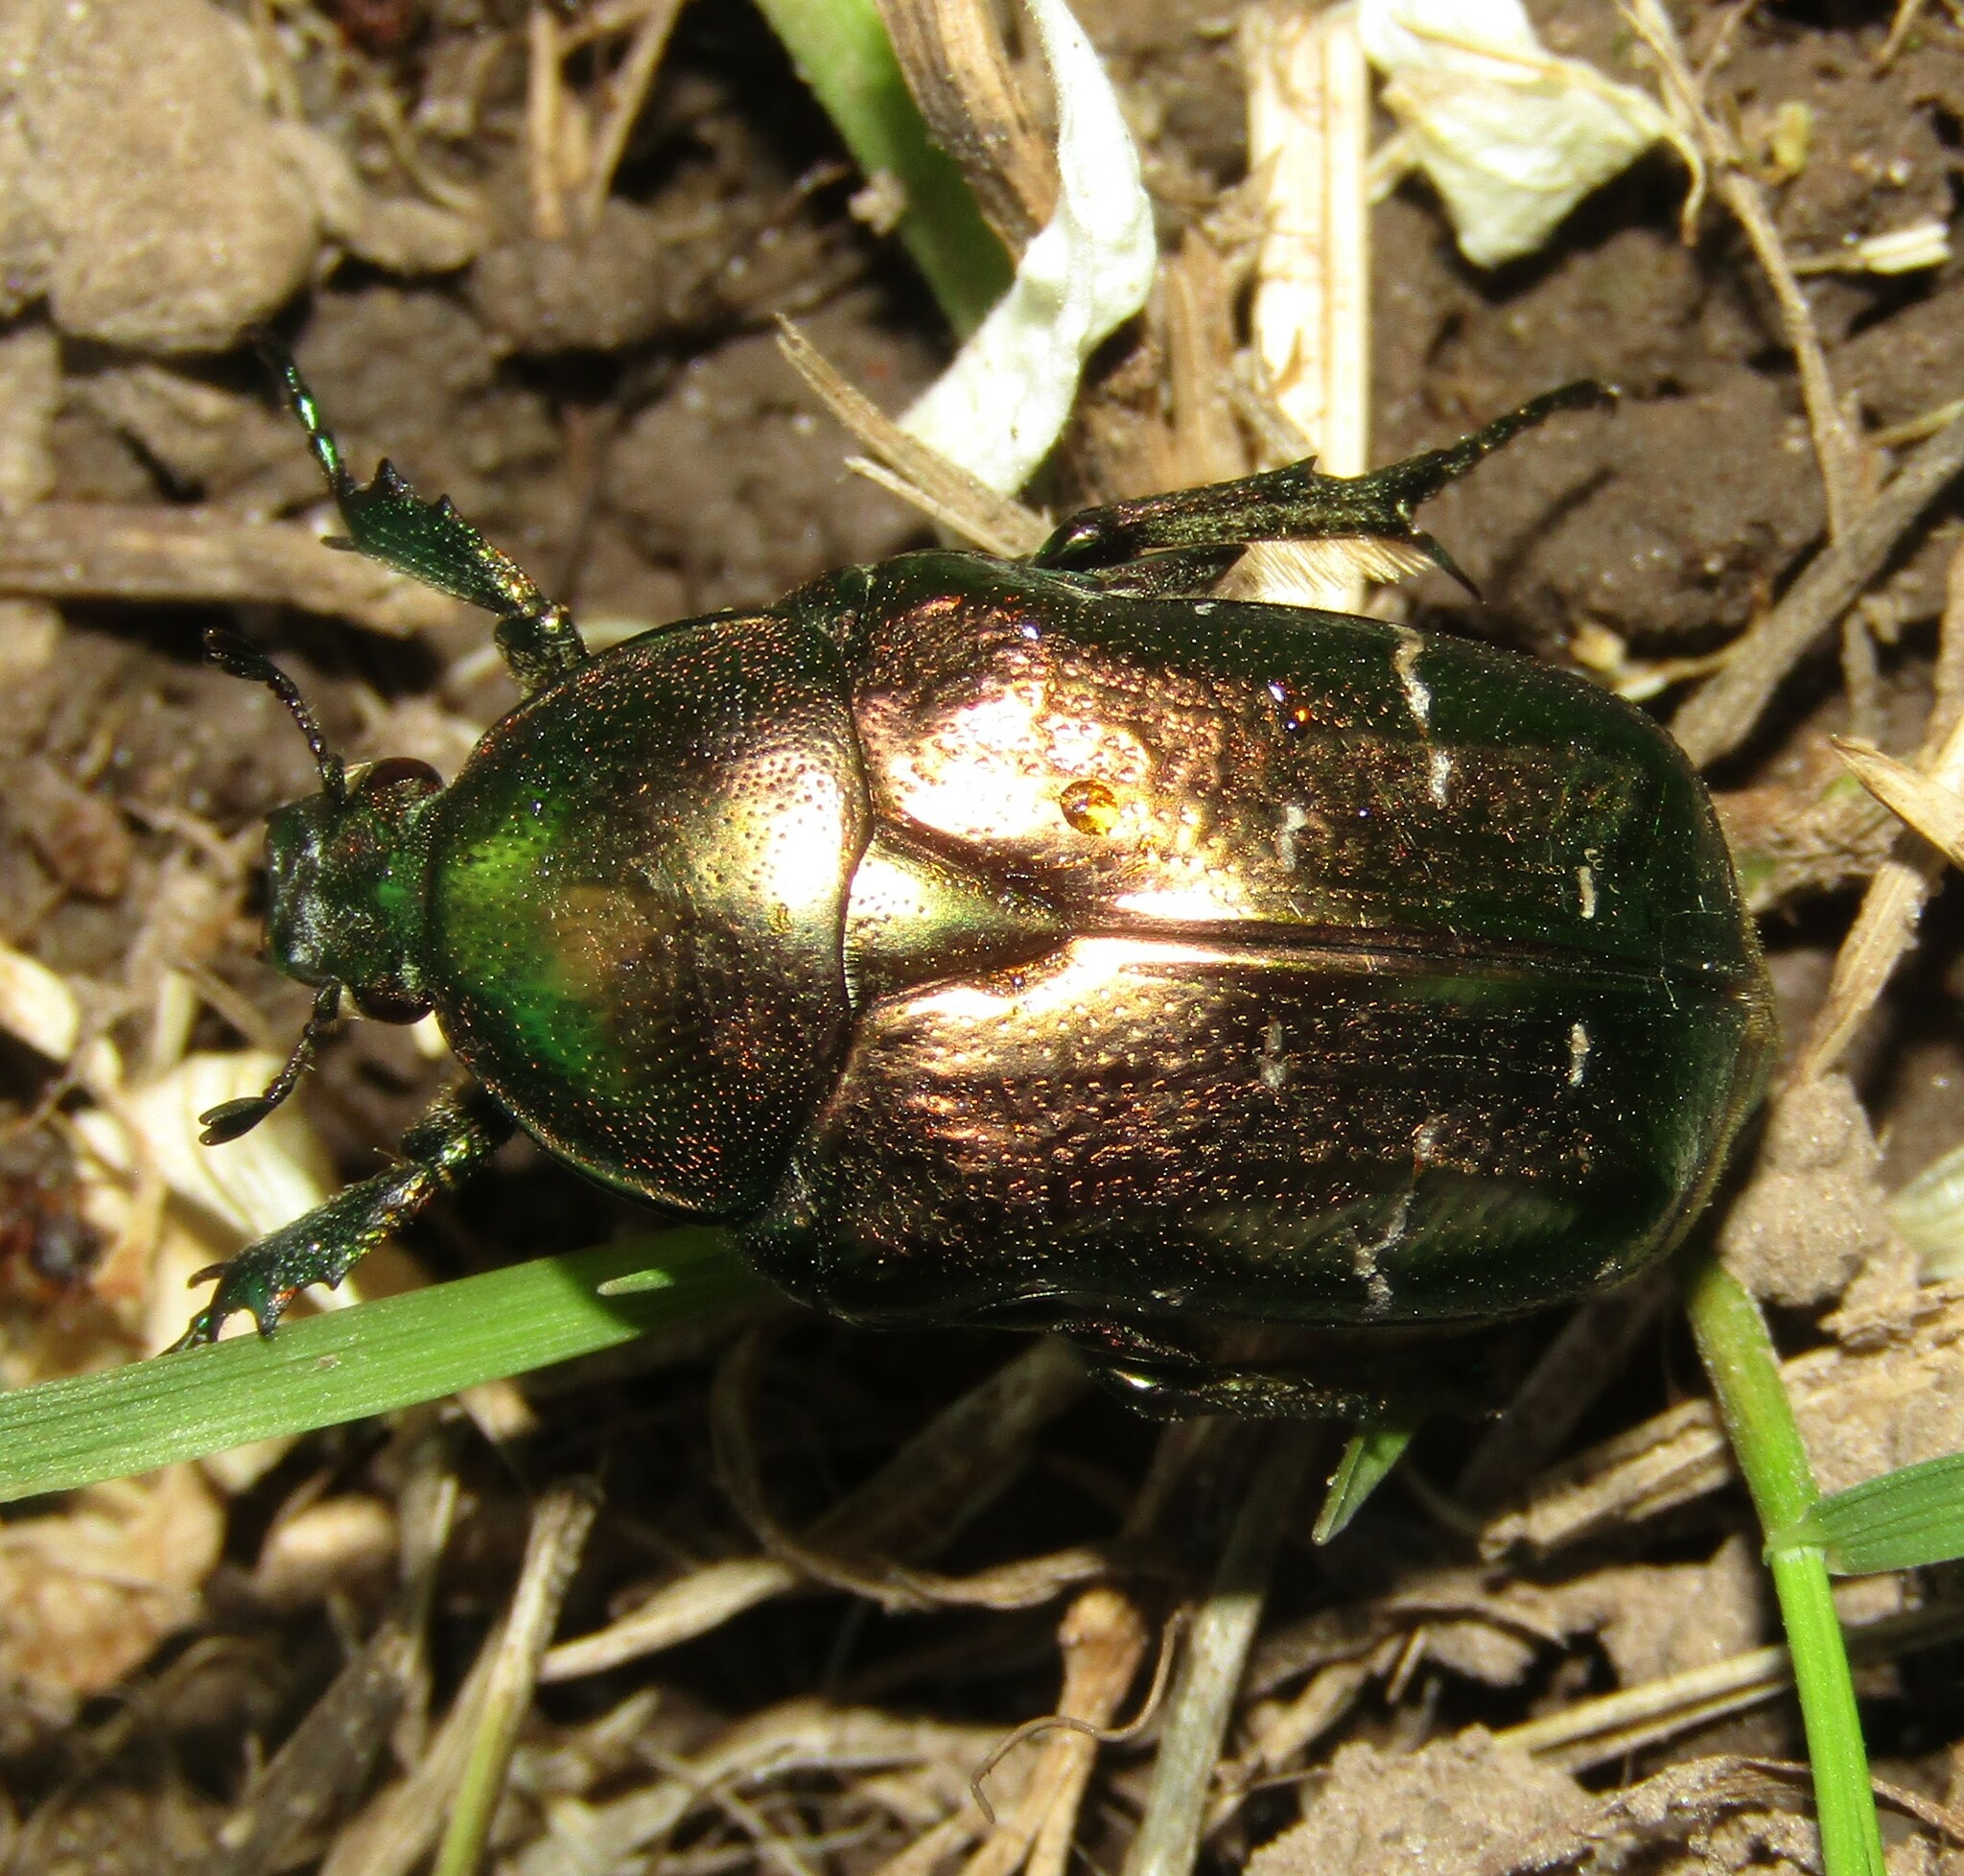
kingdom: Animalia
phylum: Arthropoda
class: Insecta
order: Coleoptera
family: Scarabaeidae
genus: Cetonia
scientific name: Cetonia aurata
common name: Rose chafer
